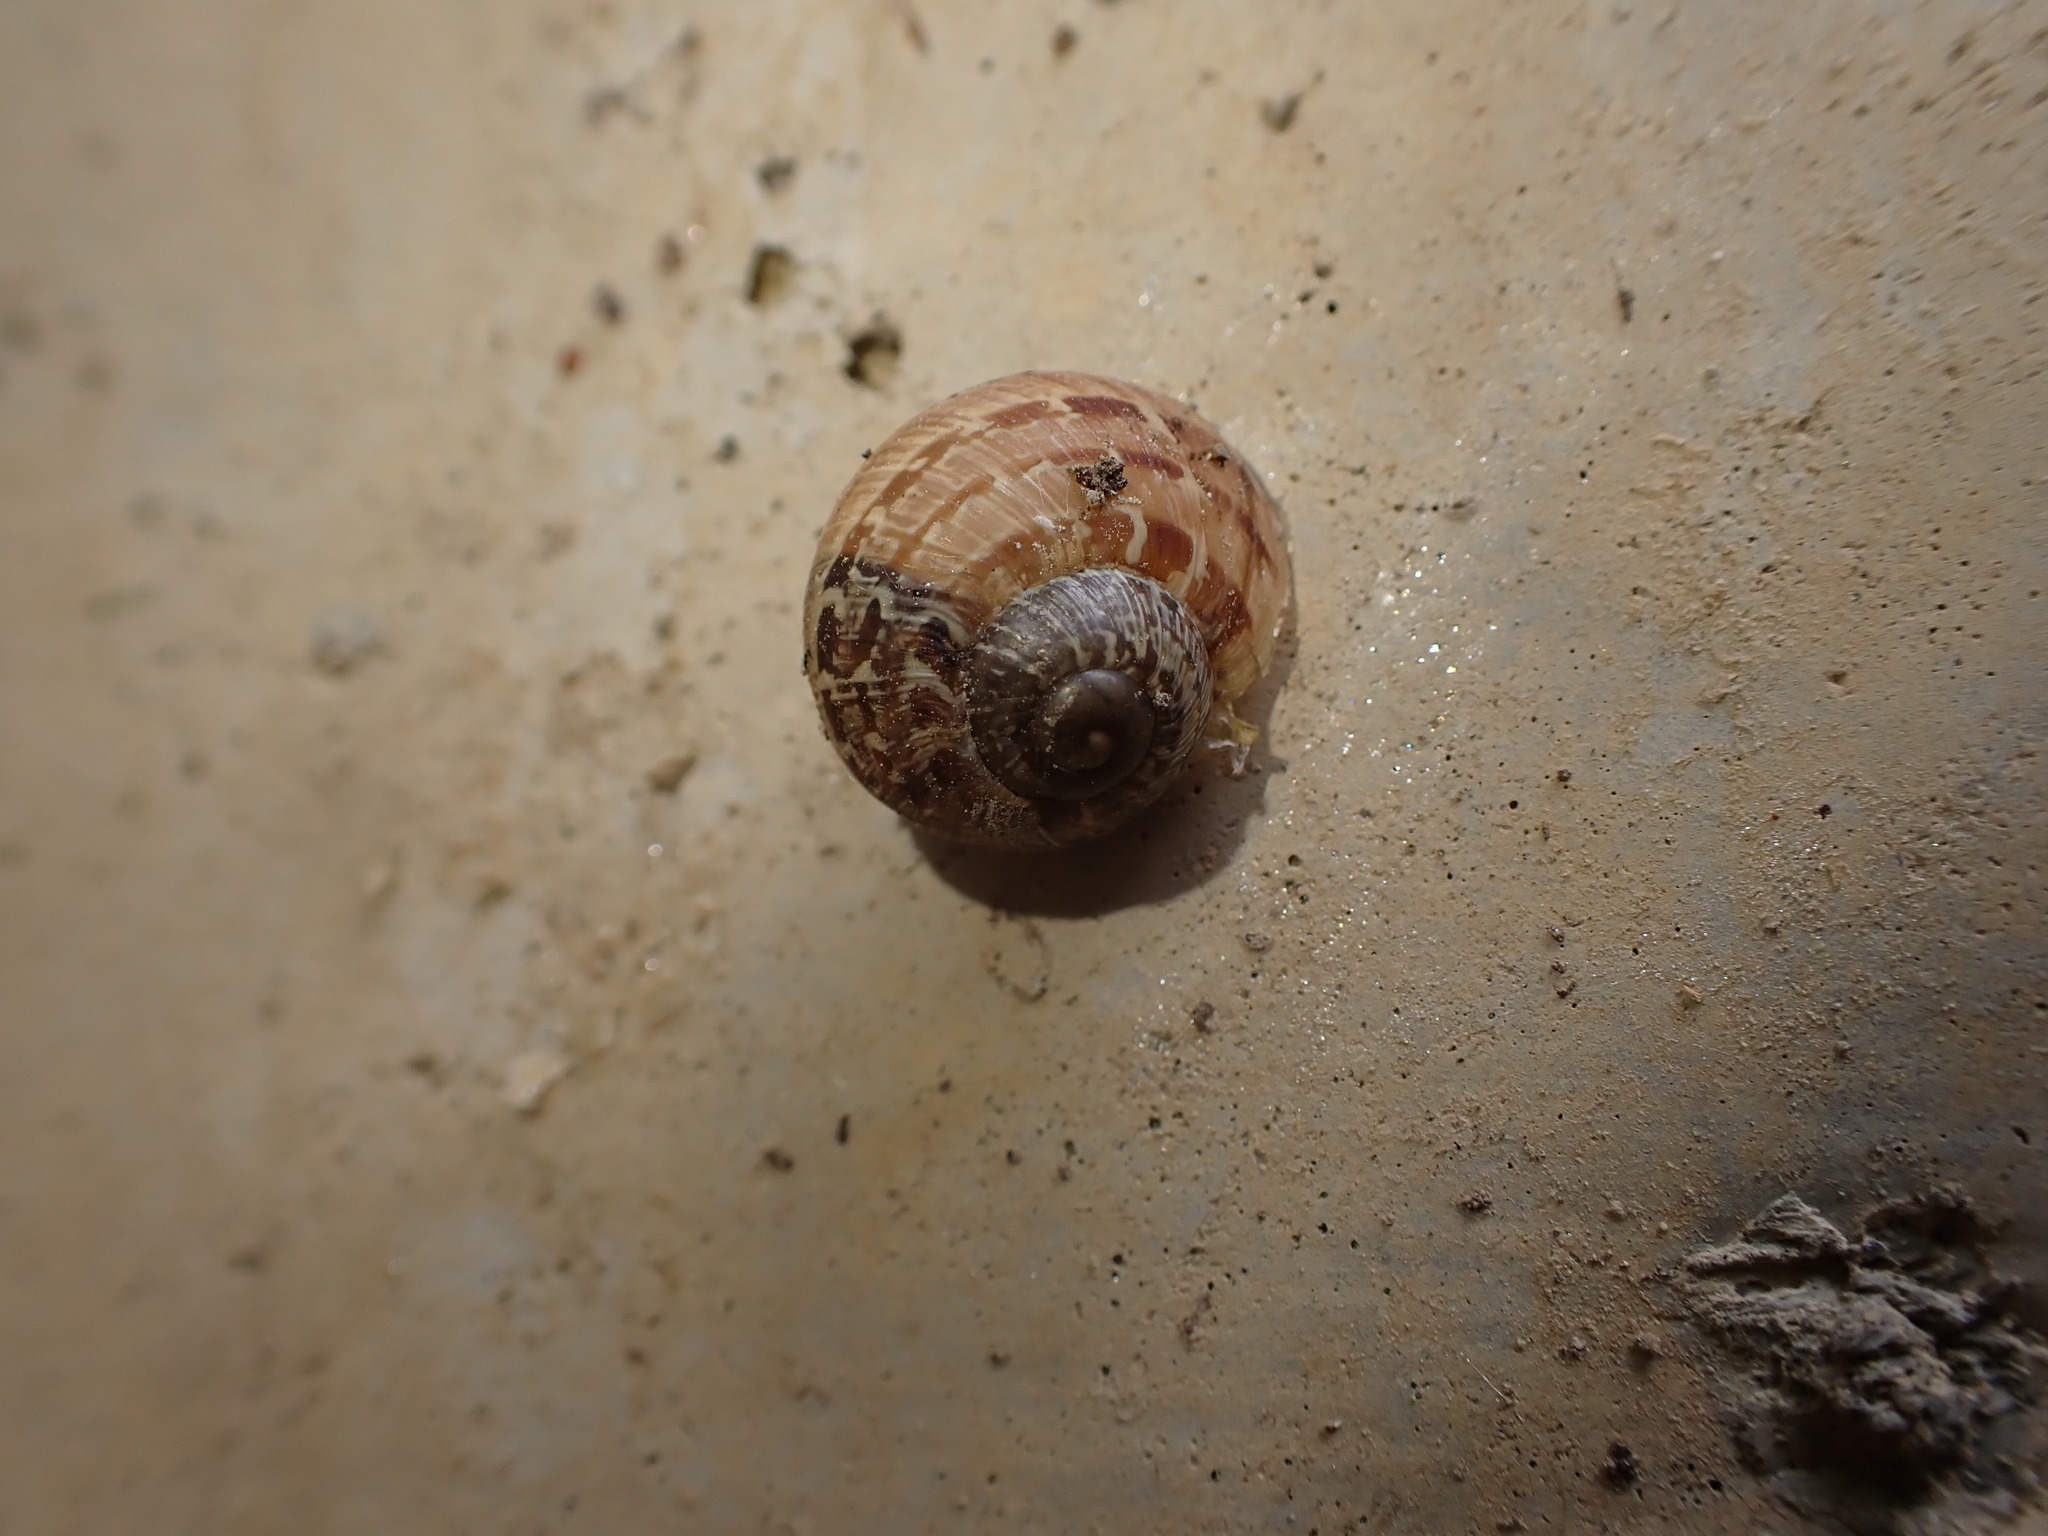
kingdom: Animalia
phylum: Mollusca
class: Gastropoda
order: Stylommatophora
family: Helicidae
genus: Cornu
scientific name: Cornu aspersum
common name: Brown garden snail
